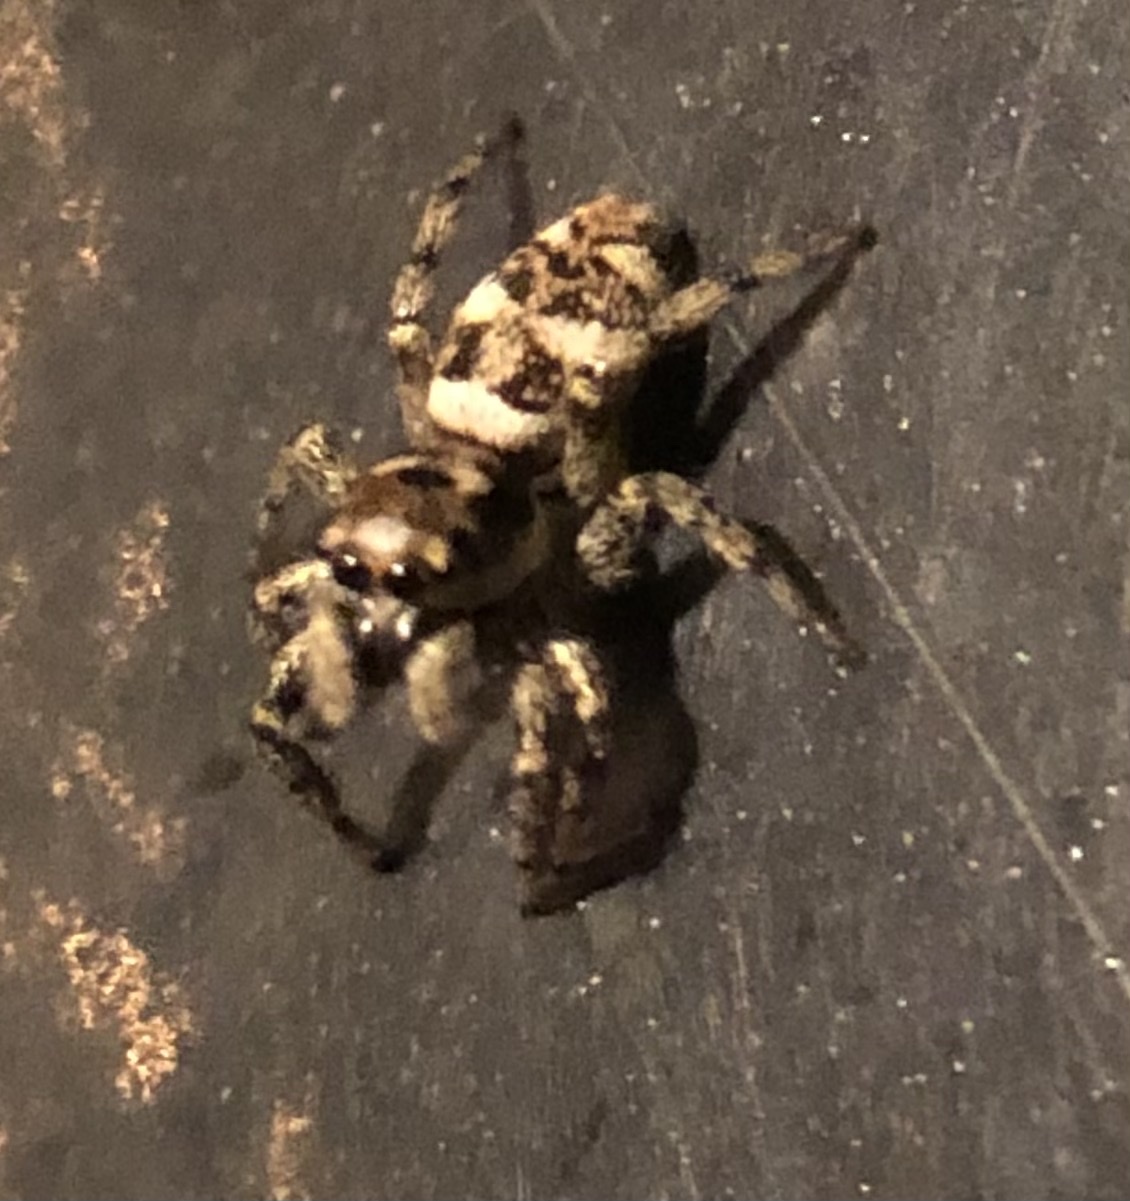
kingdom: Animalia
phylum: Arthropoda
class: Arachnida
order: Araneae
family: Salticidae
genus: Salticus
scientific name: Salticus scenicus
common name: Zebra jumper
